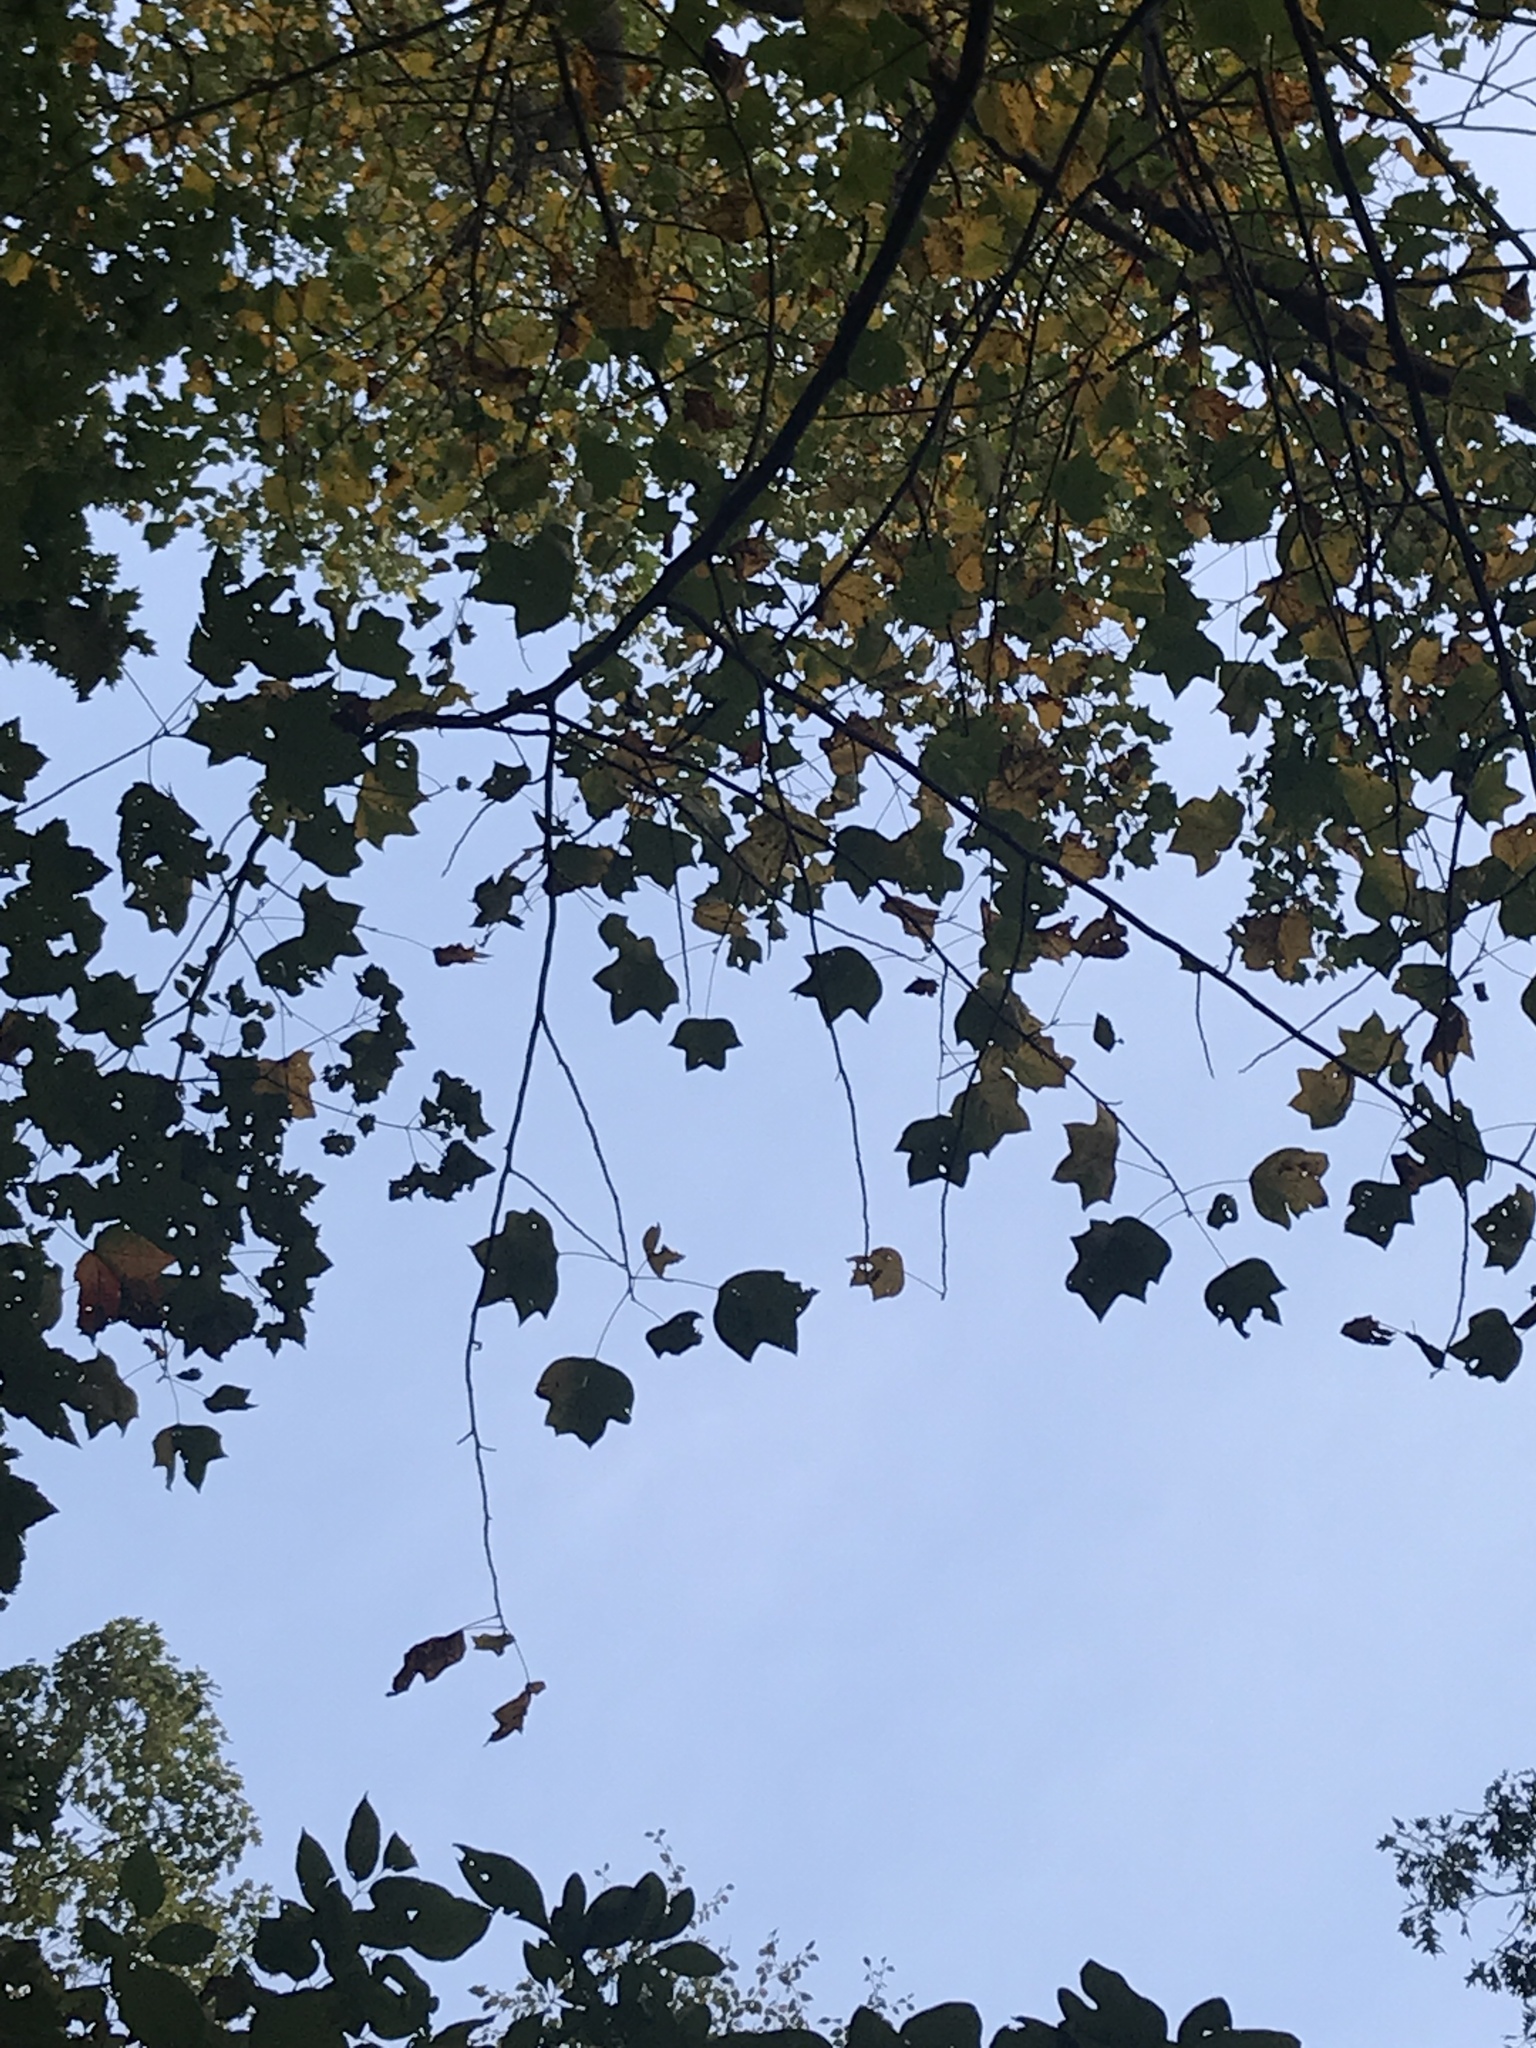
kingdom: Plantae
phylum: Tracheophyta
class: Magnoliopsida
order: Magnoliales
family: Magnoliaceae
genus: Liriodendron
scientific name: Liriodendron tulipifera
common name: Tulip tree
